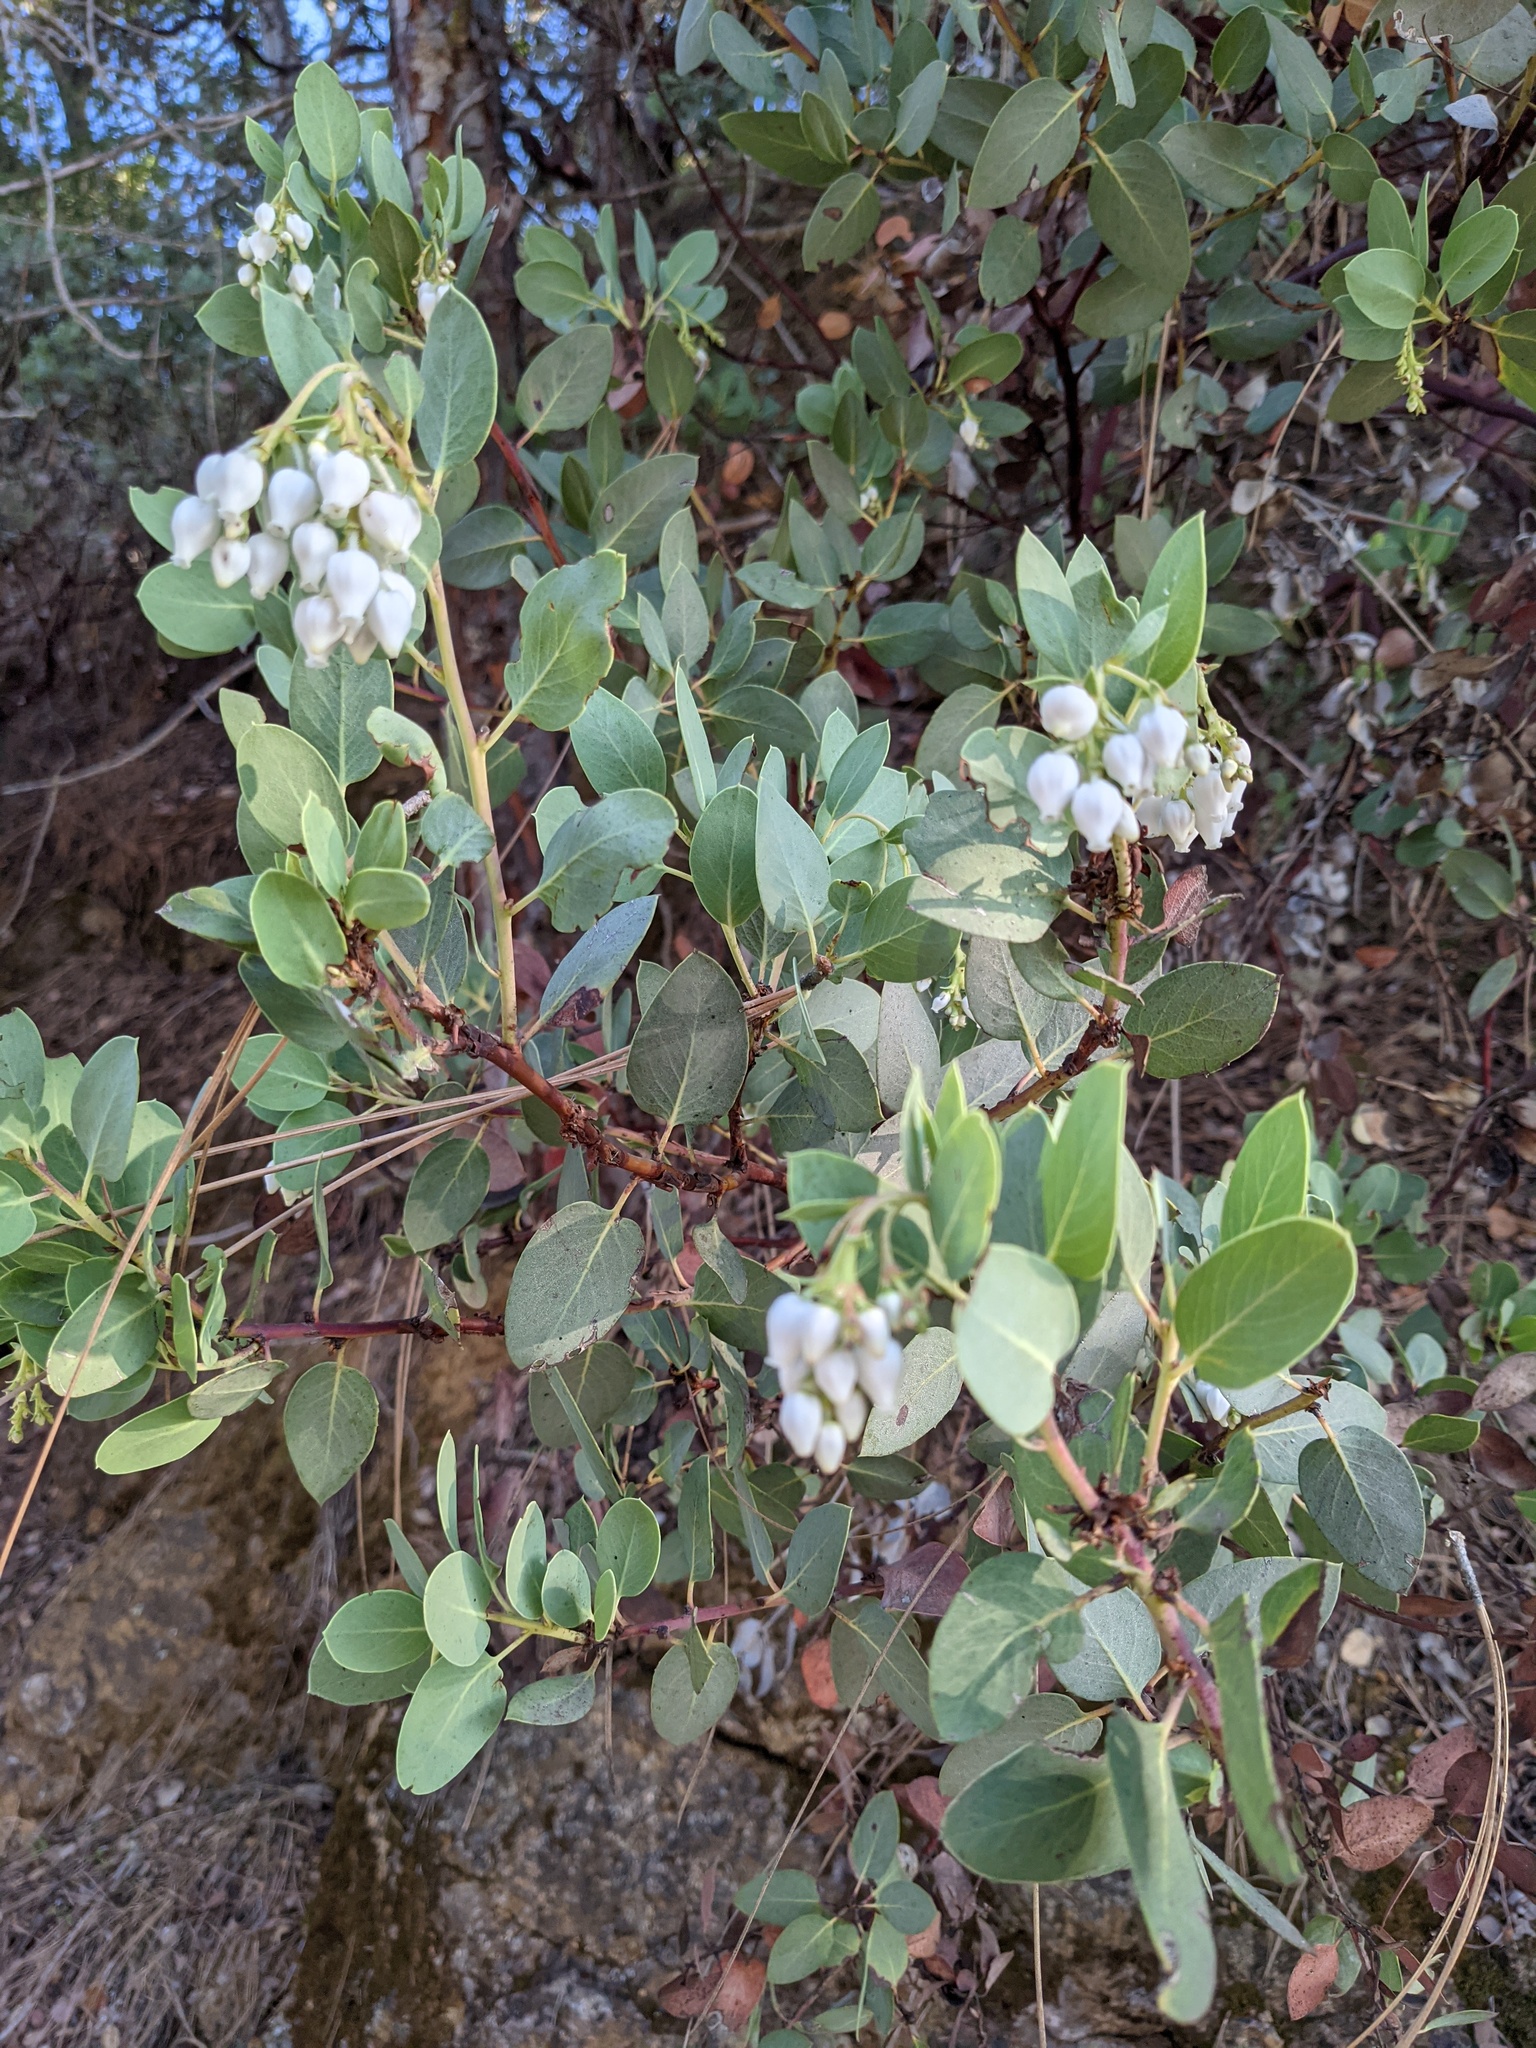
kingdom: Plantae
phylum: Tracheophyta
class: Magnoliopsida
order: Ericales
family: Ericaceae
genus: Arctostaphylos
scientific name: Arctostaphylos glauca
